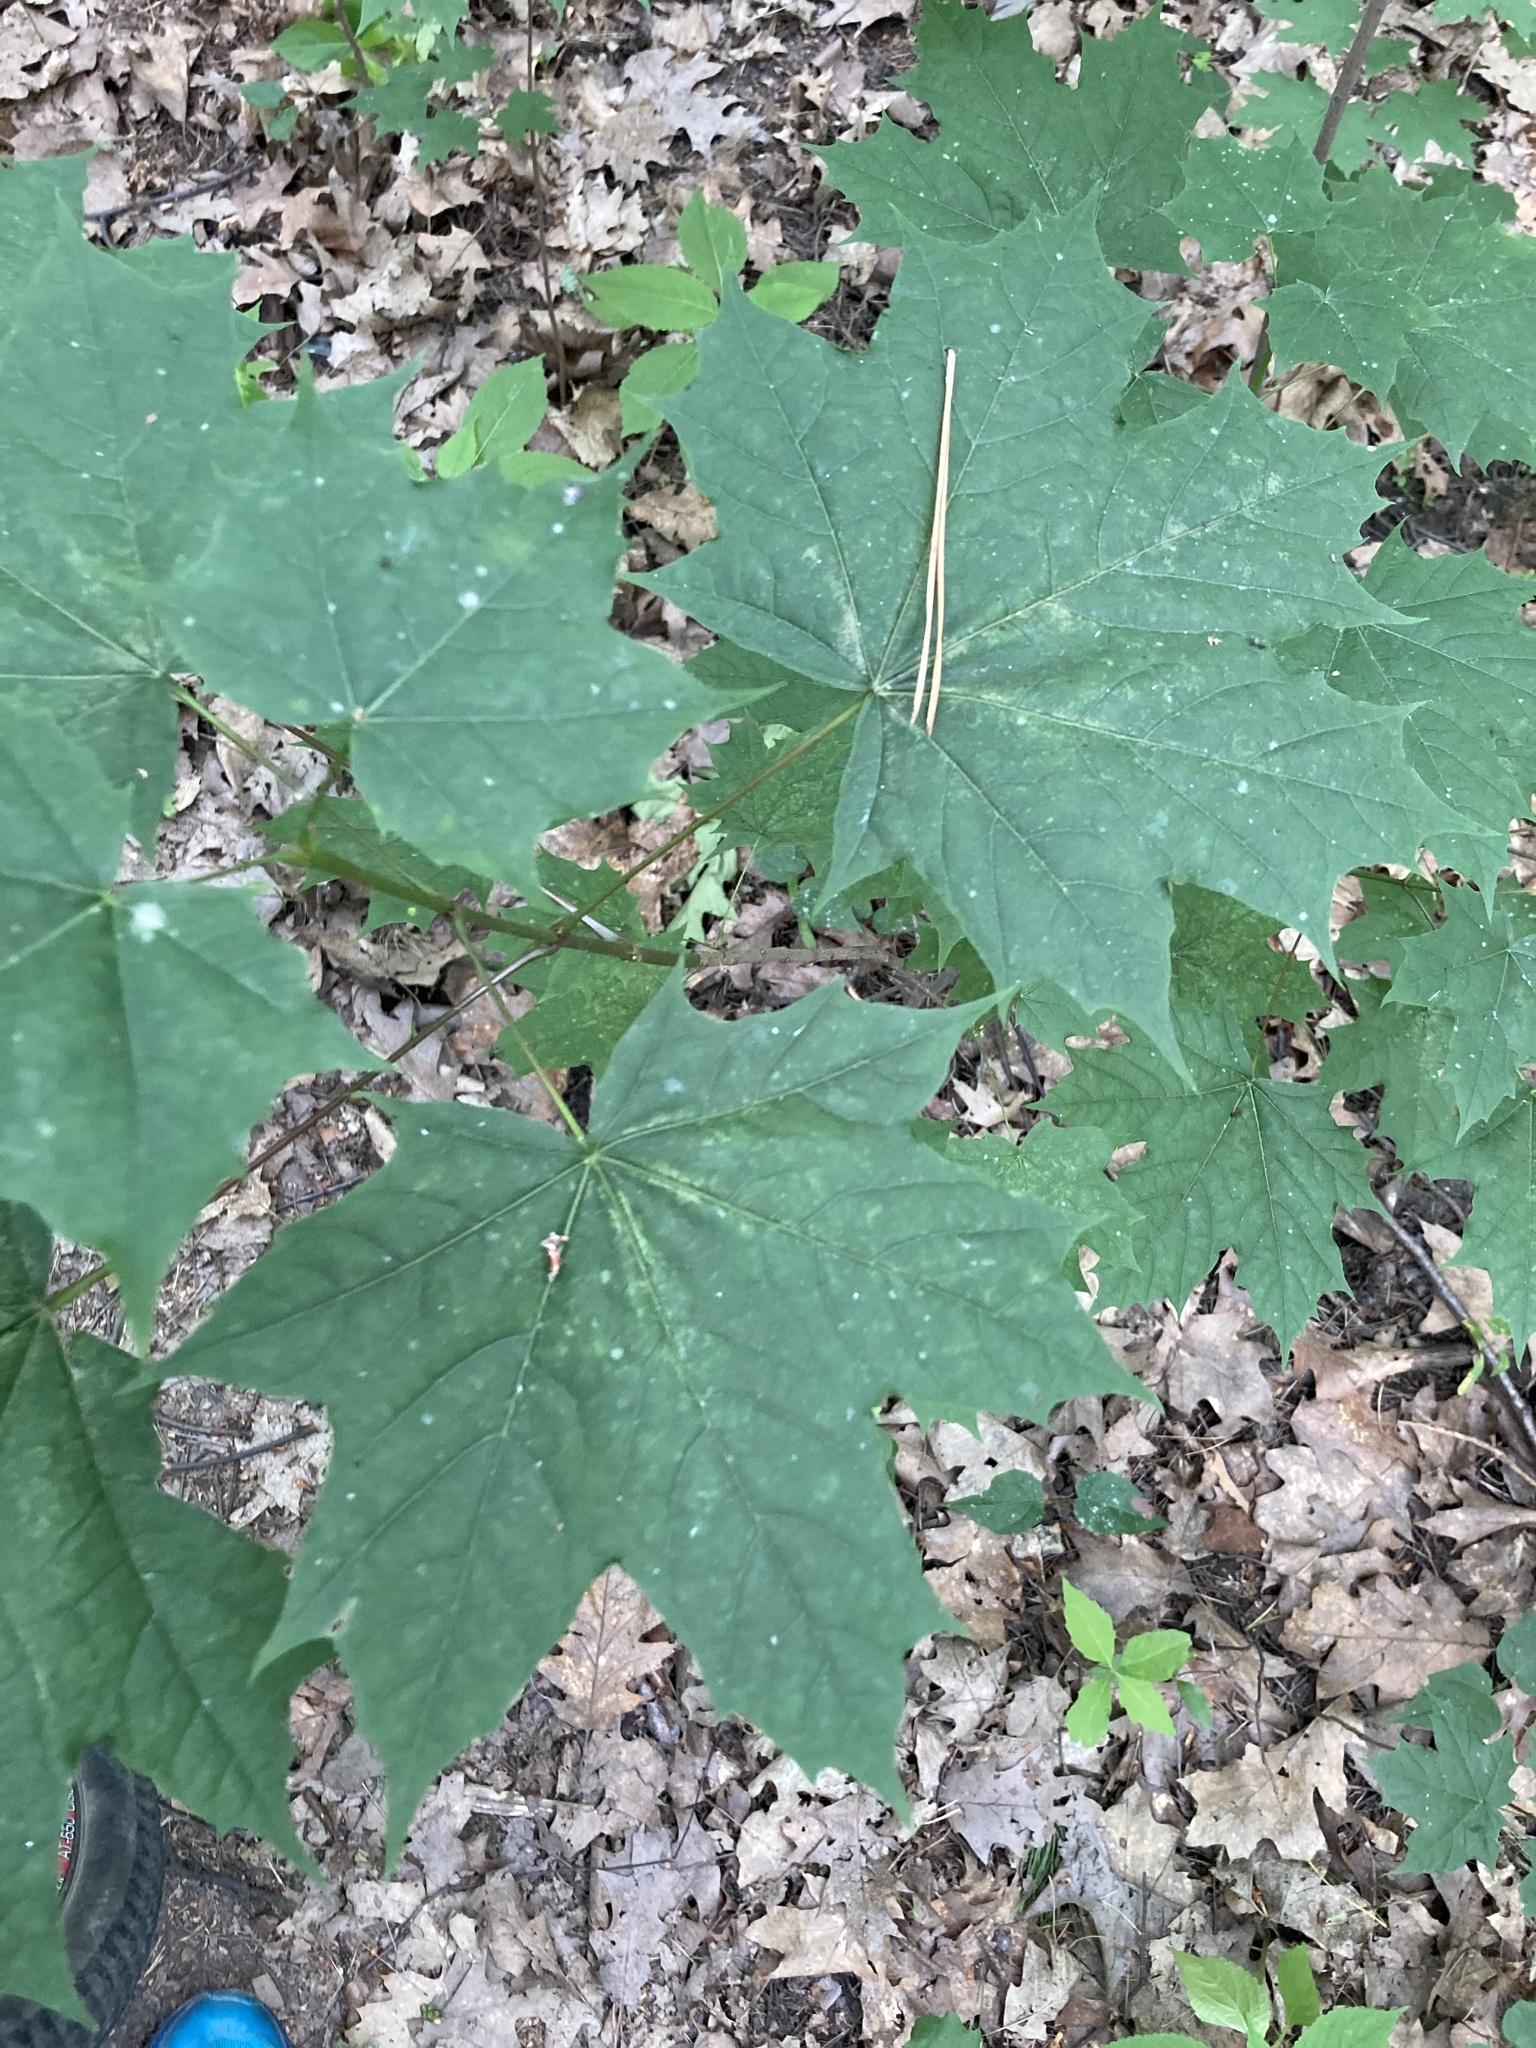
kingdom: Plantae
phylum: Tracheophyta
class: Magnoliopsida
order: Sapindales
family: Sapindaceae
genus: Acer
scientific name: Acer platanoides
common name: Norway maple
